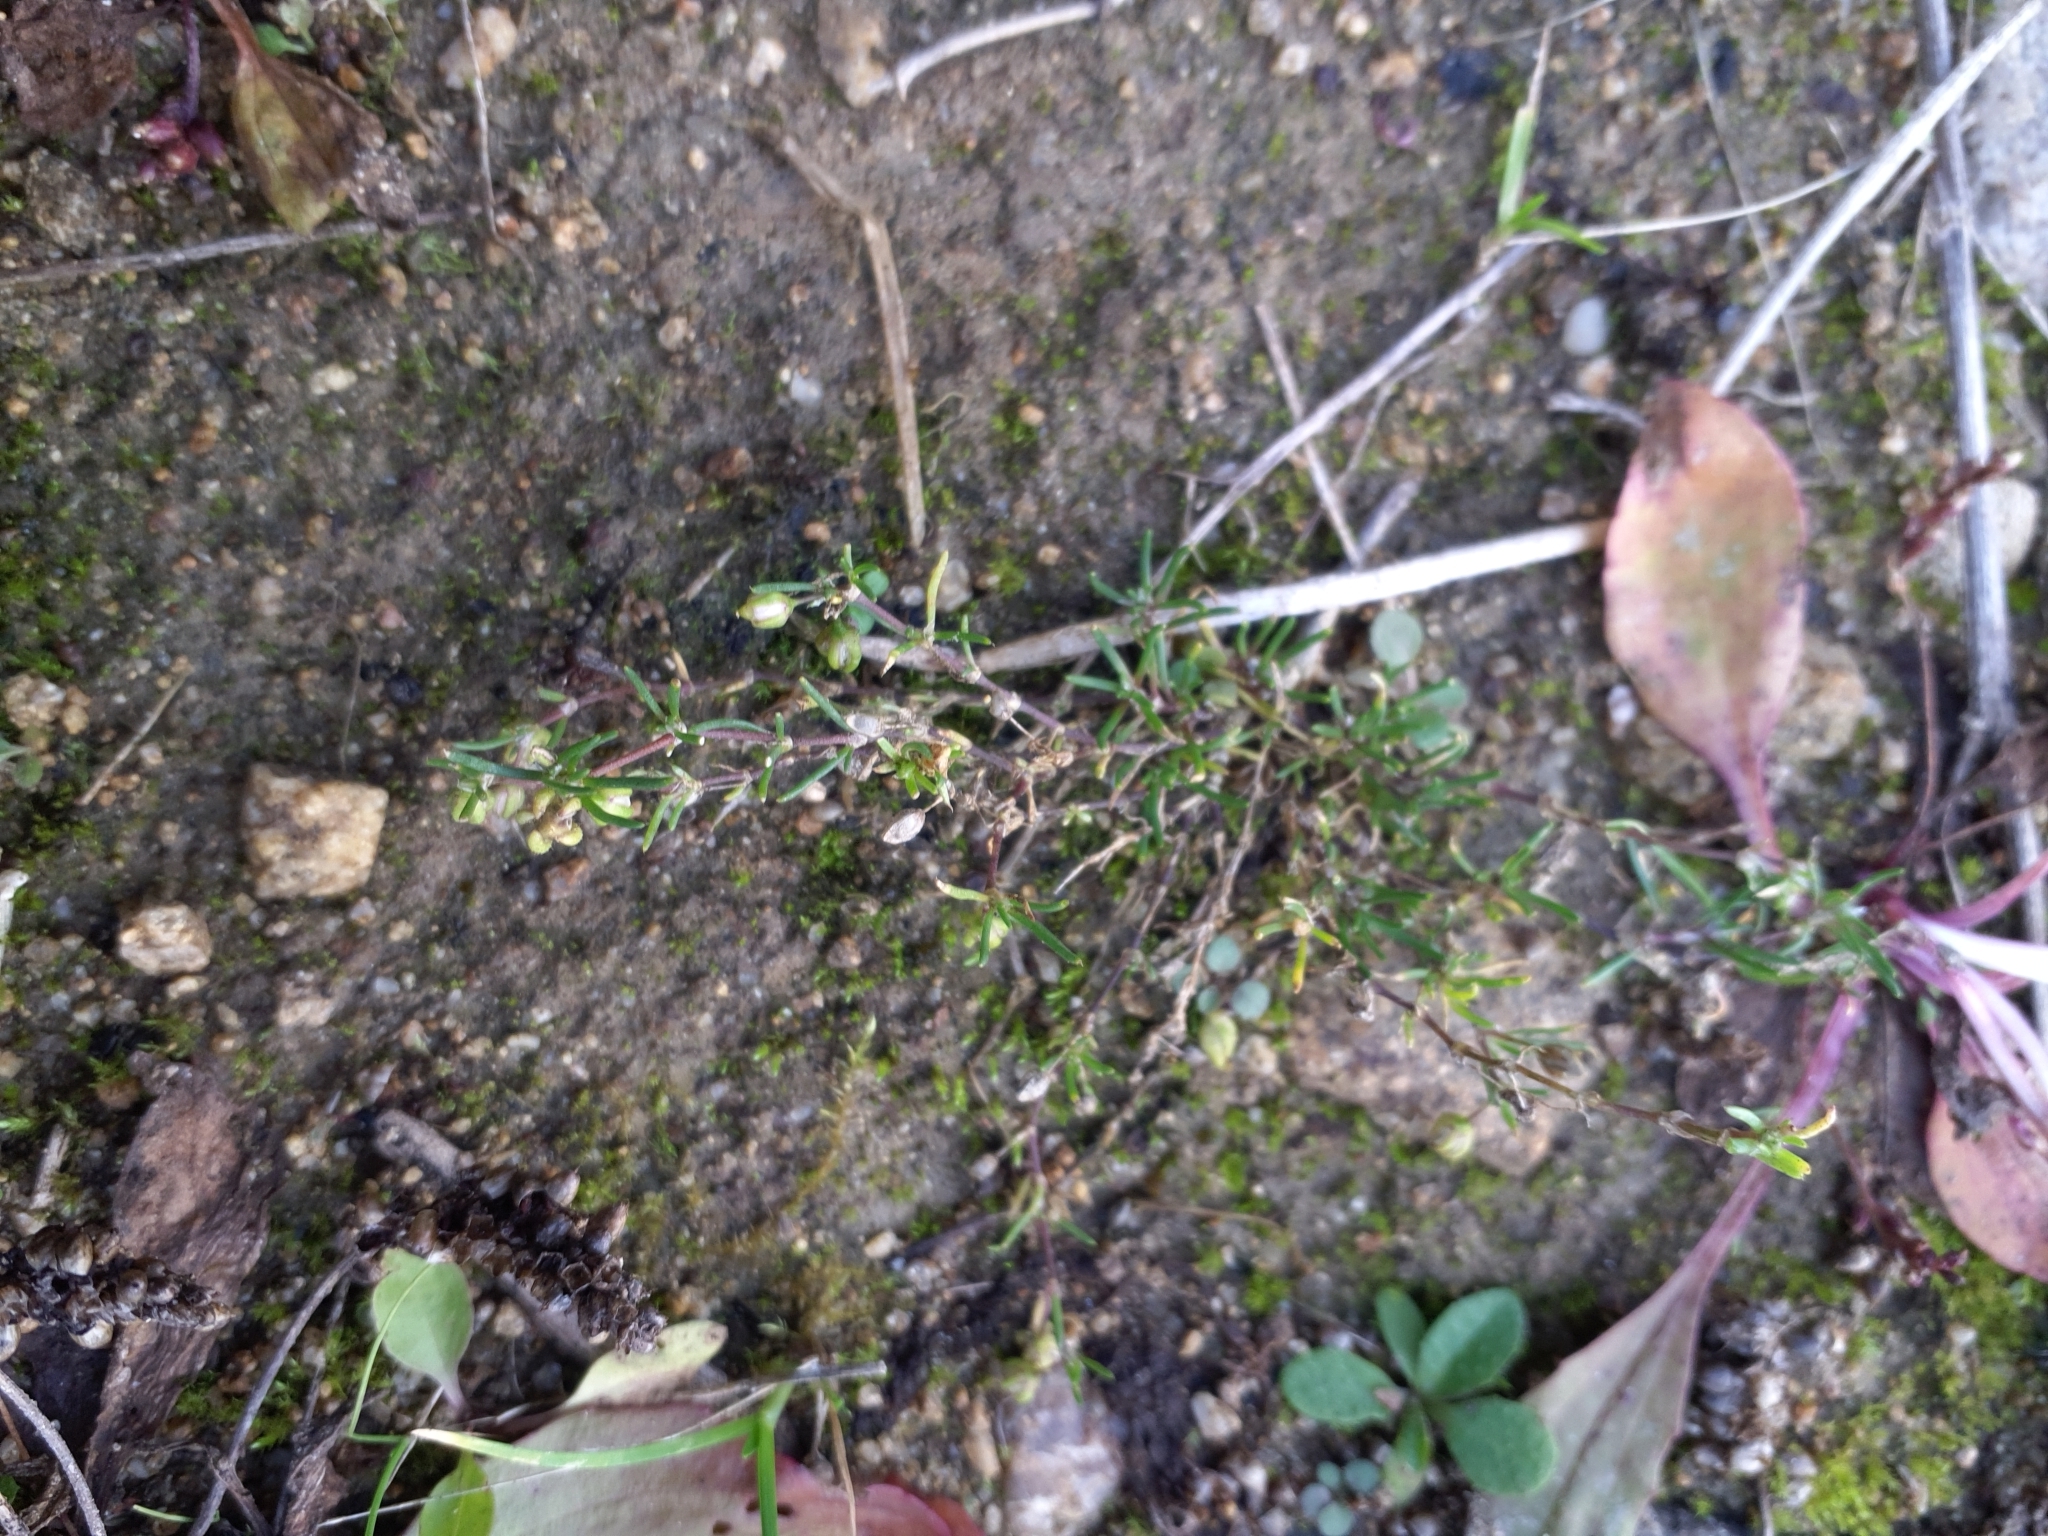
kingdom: Plantae
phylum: Tracheophyta
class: Magnoliopsida
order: Caryophyllales
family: Caryophyllaceae
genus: Spergularia
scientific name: Spergularia kurkae
